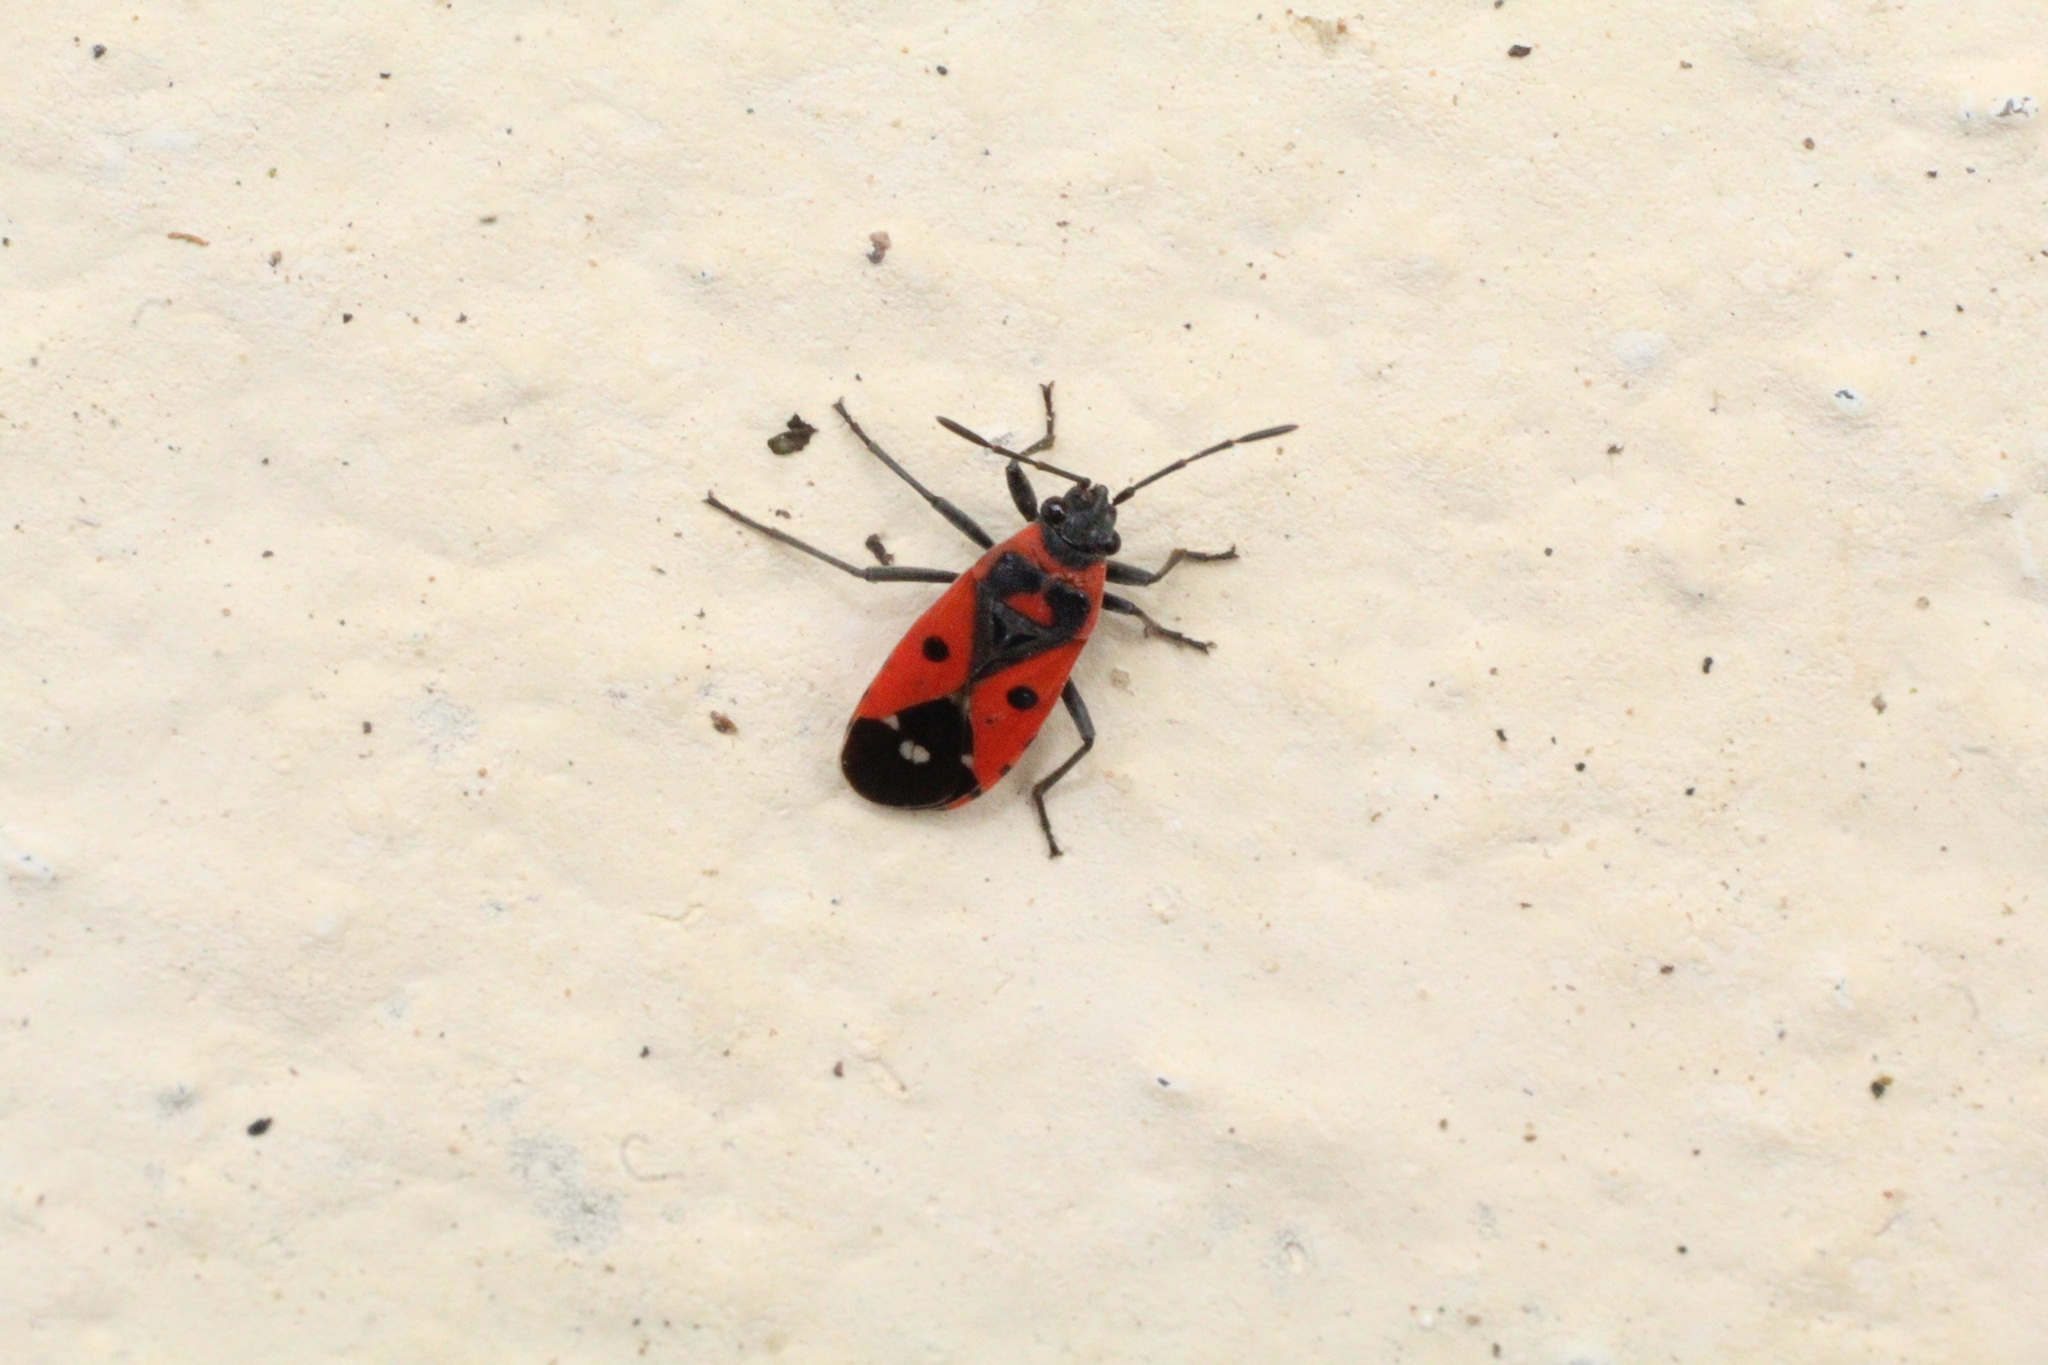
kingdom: Animalia
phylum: Arthropoda
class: Insecta
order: Hemiptera
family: Lygaeidae
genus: Melanocoryphus
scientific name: Melanocoryphus albomaculatus
